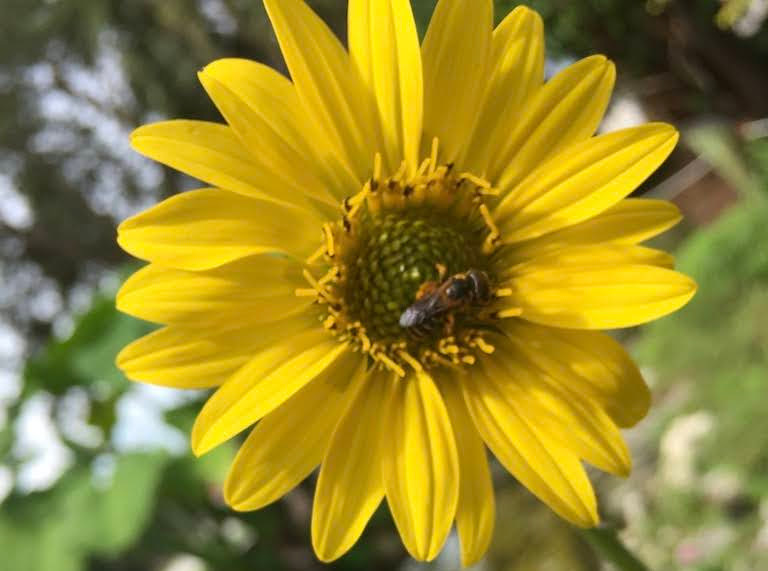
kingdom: Animalia
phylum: Arthropoda
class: Insecta
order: Hymenoptera
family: Halictidae
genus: Halictus
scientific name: Halictus poeyi
